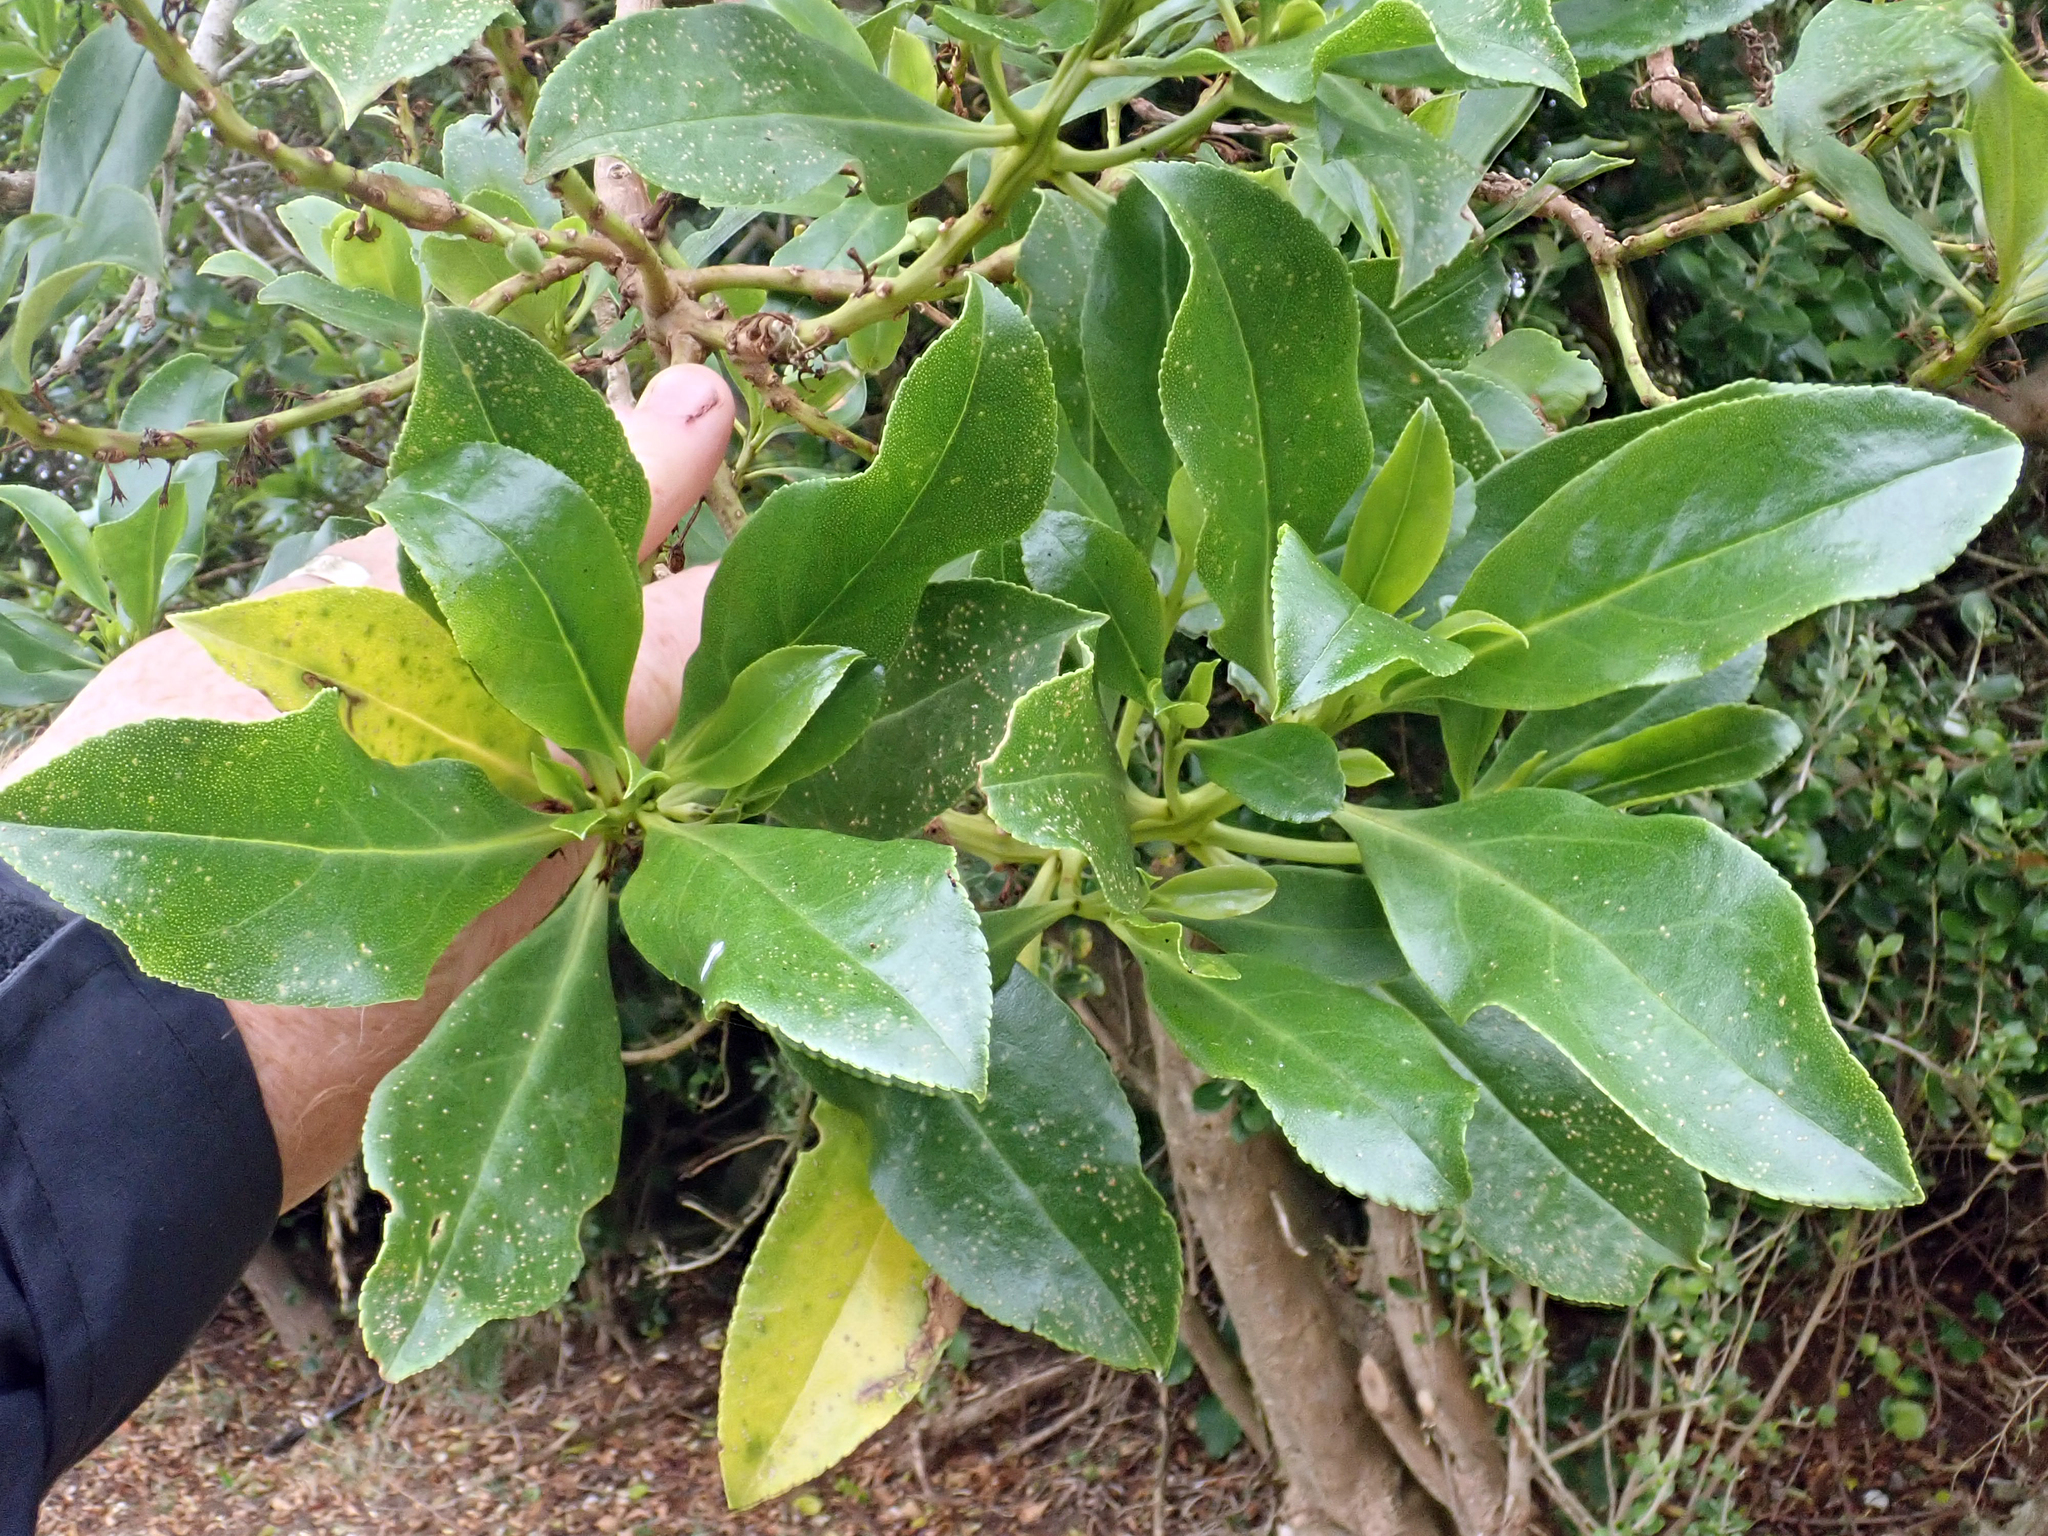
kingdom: Plantae
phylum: Tracheophyta
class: Magnoliopsida
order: Lamiales
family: Scrophulariaceae
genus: Myoporum
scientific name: Myoporum semotum
